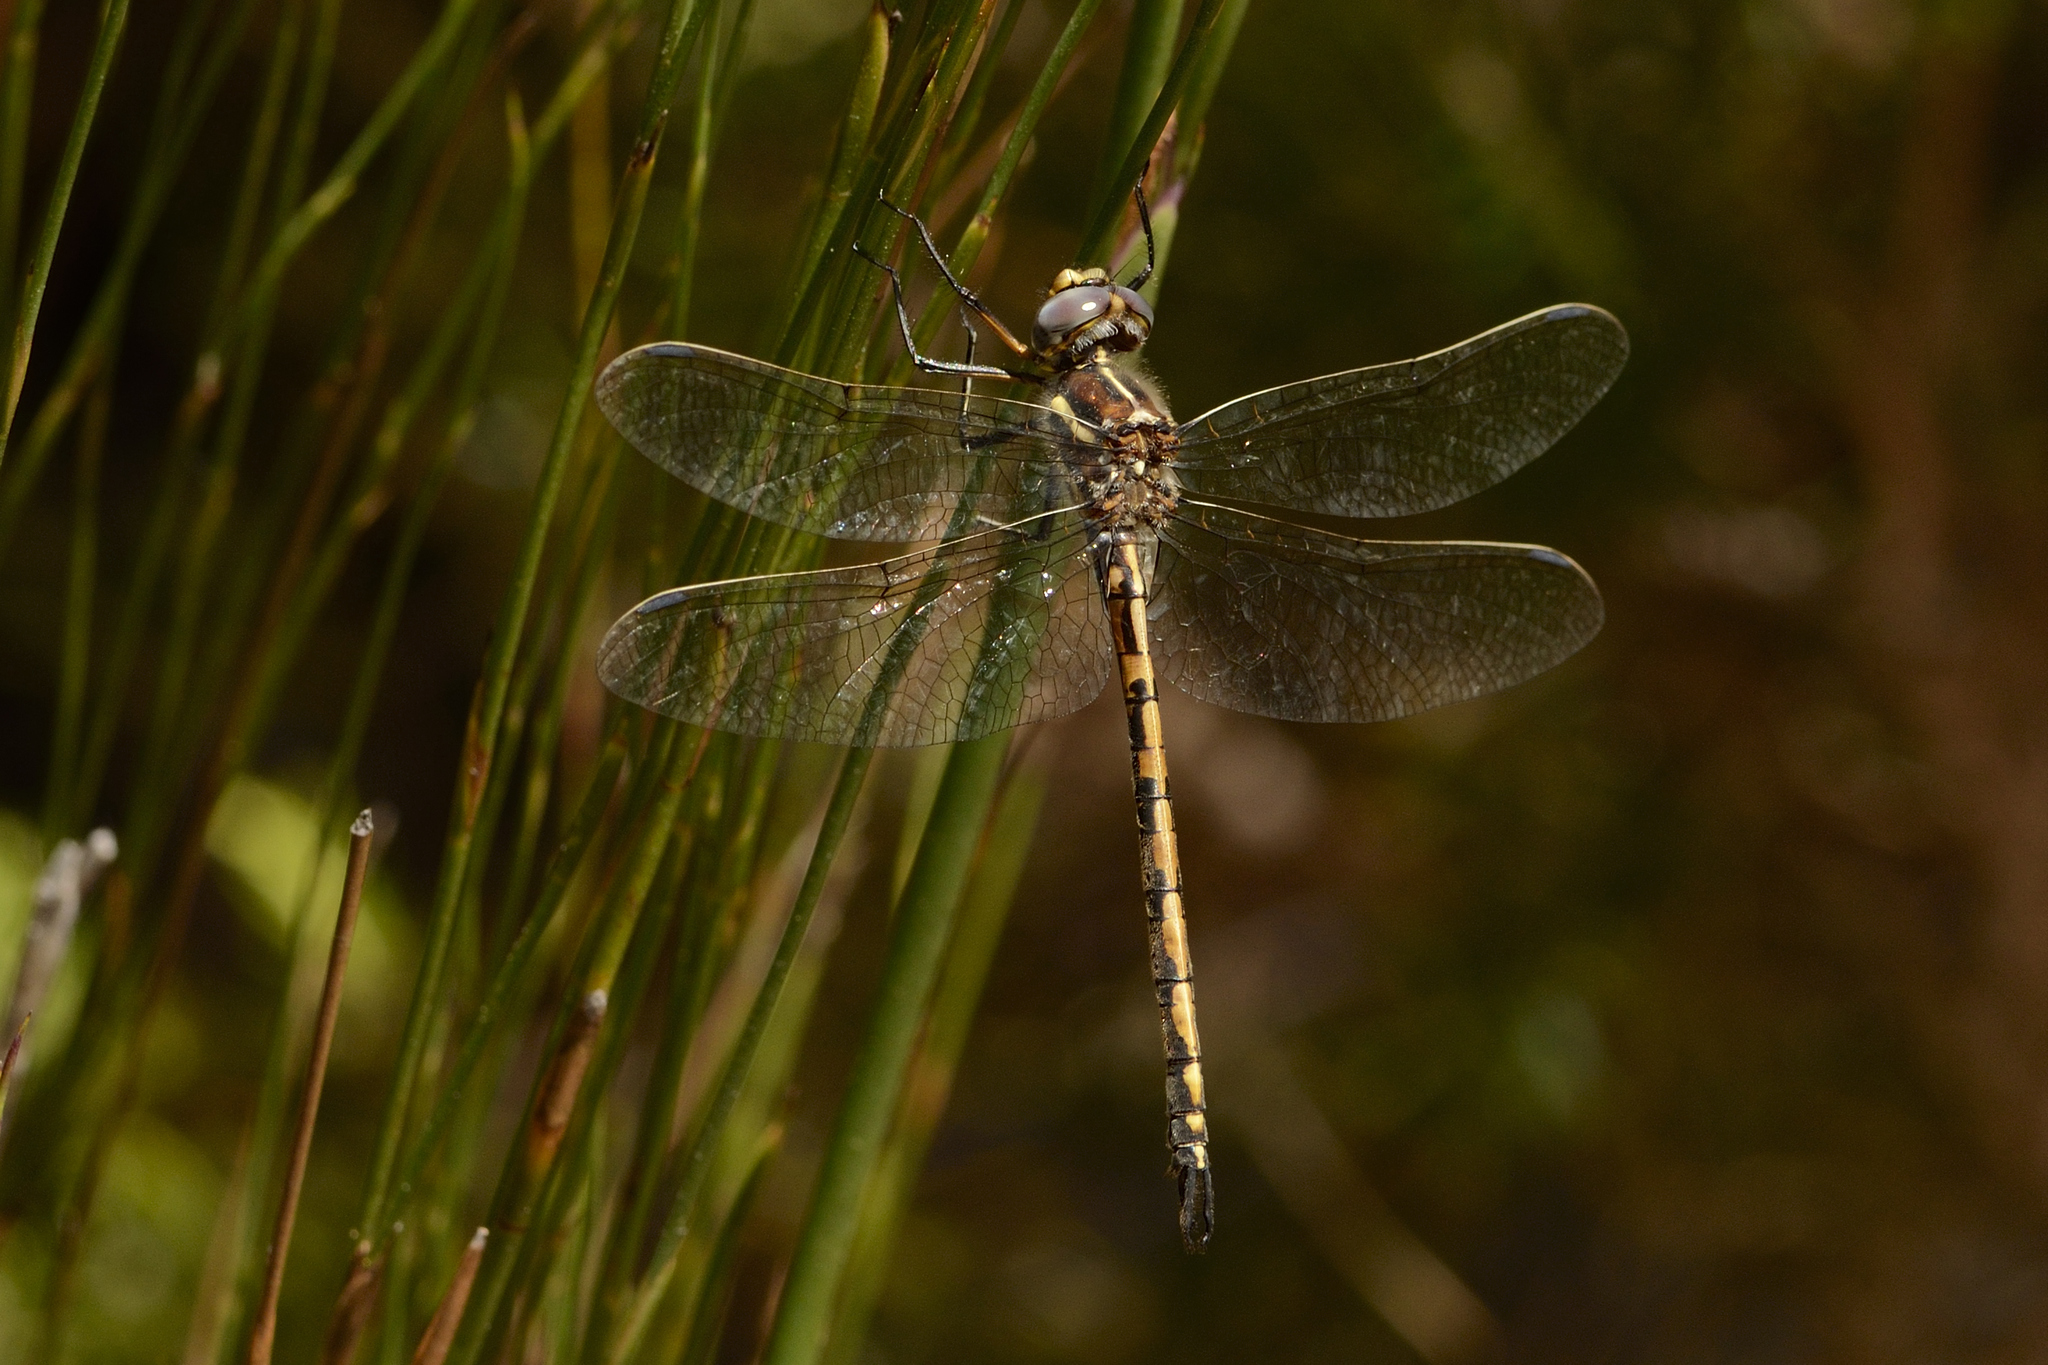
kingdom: Animalia
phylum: Arthropoda
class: Insecta
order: Odonata
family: Synthemistidae
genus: Syncordulia
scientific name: Syncordulia gracilis
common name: Yellow presba
